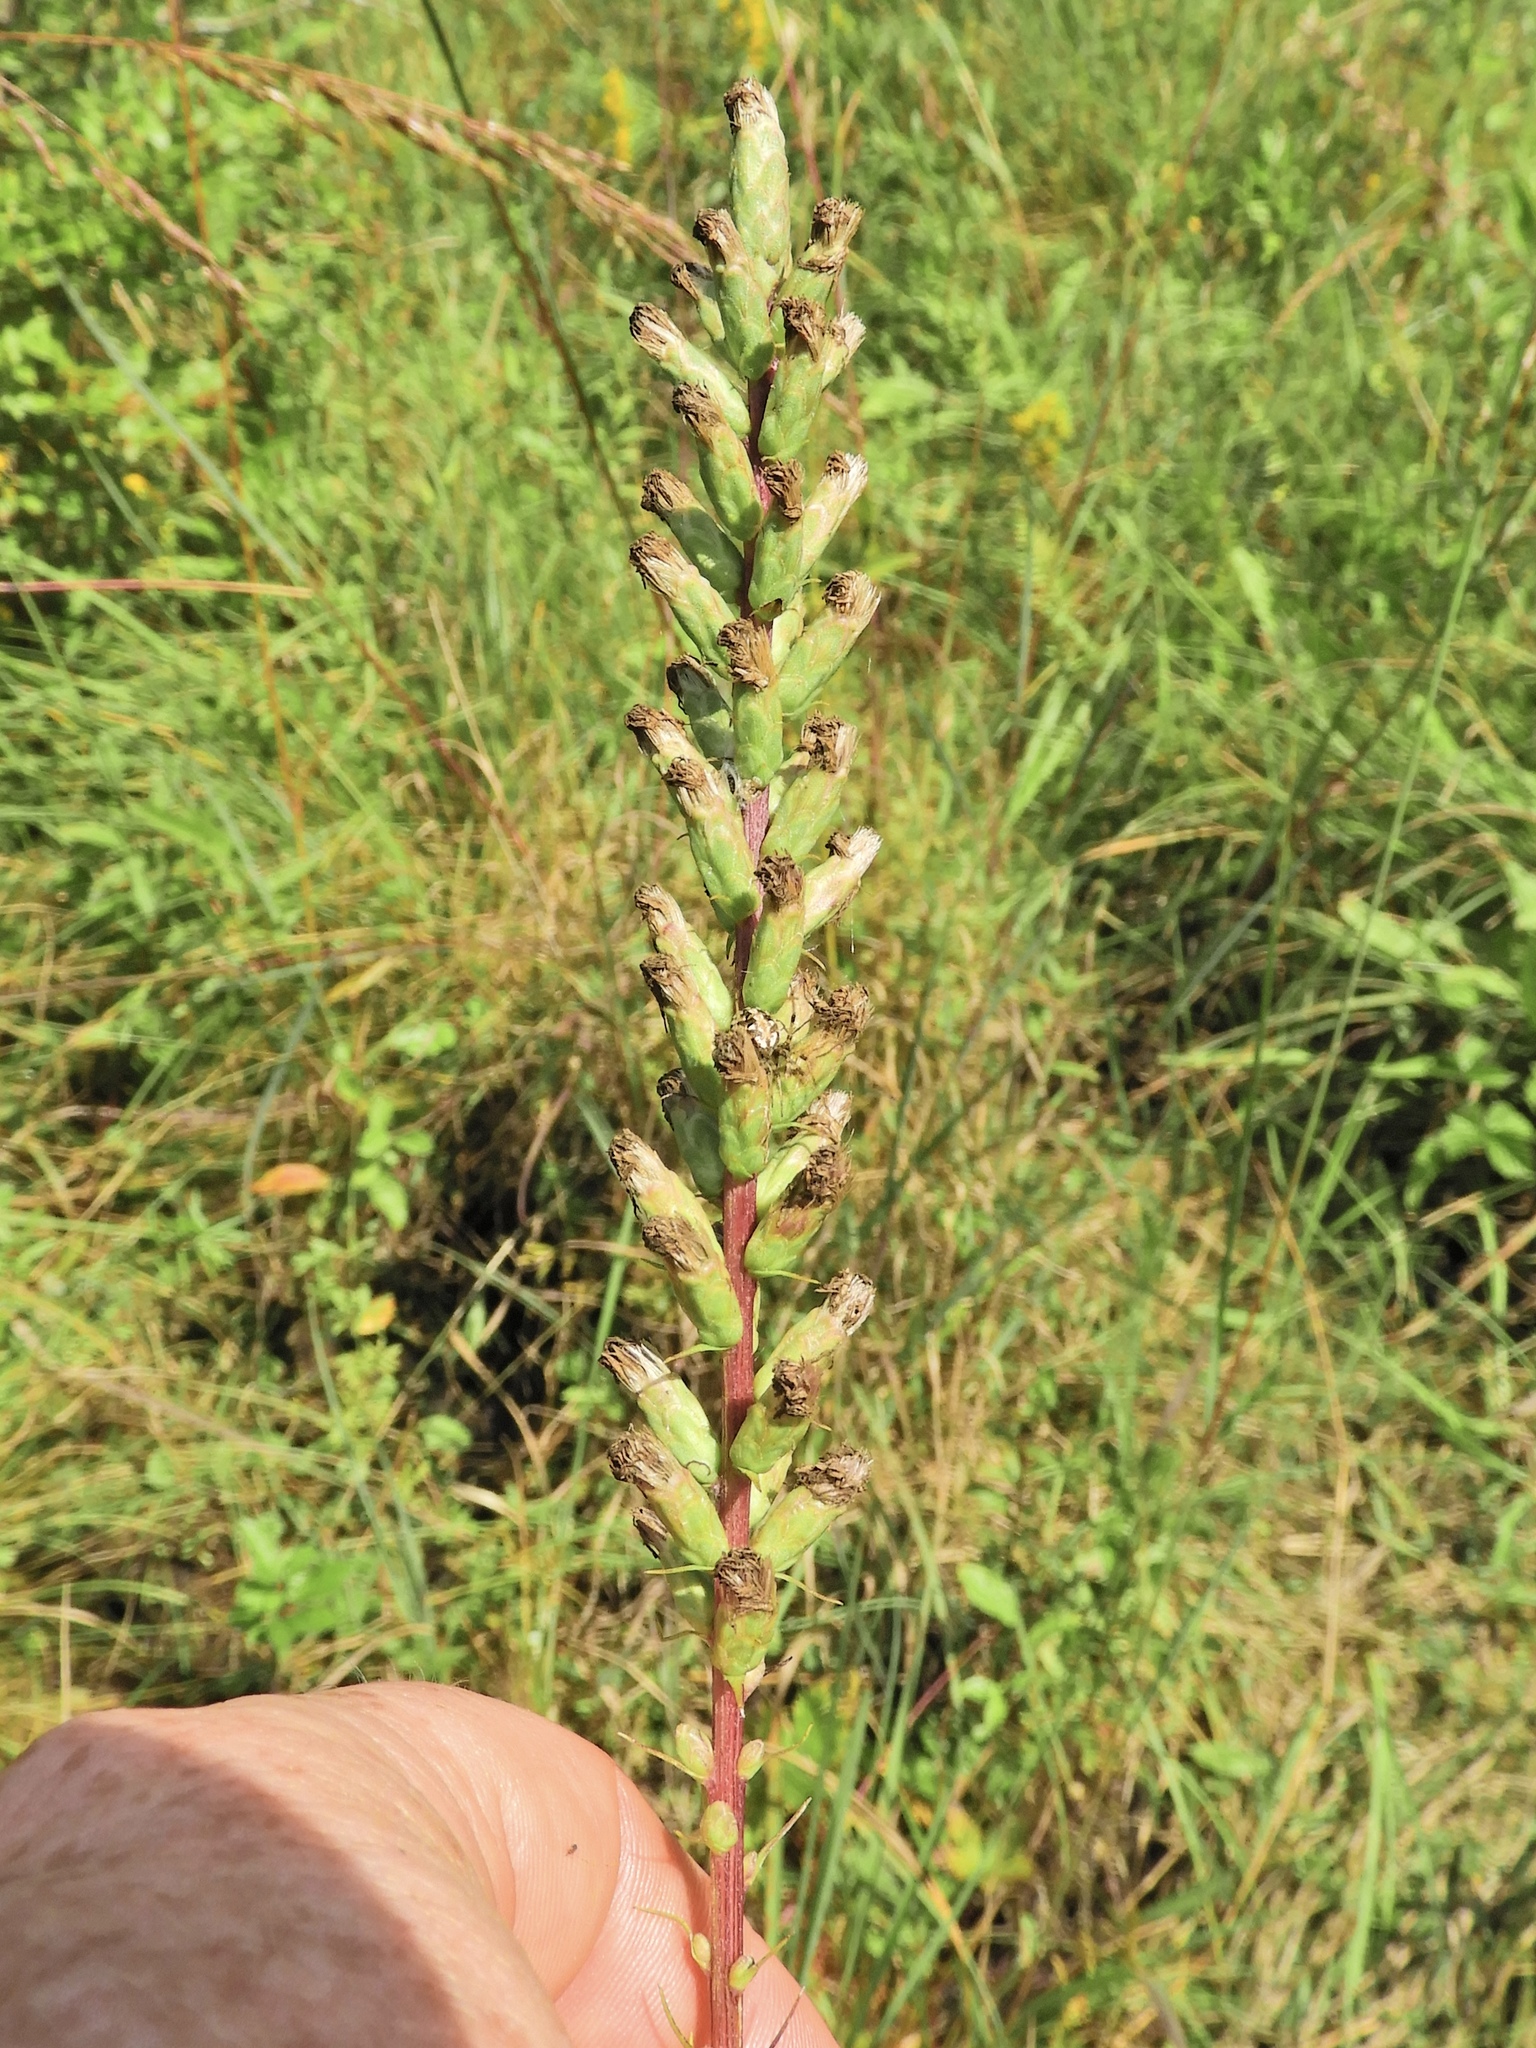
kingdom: Plantae
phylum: Tracheophyta
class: Magnoliopsida
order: Asterales
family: Asteraceae
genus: Liatris
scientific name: Liatris spicata
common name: Florist gayfeather
